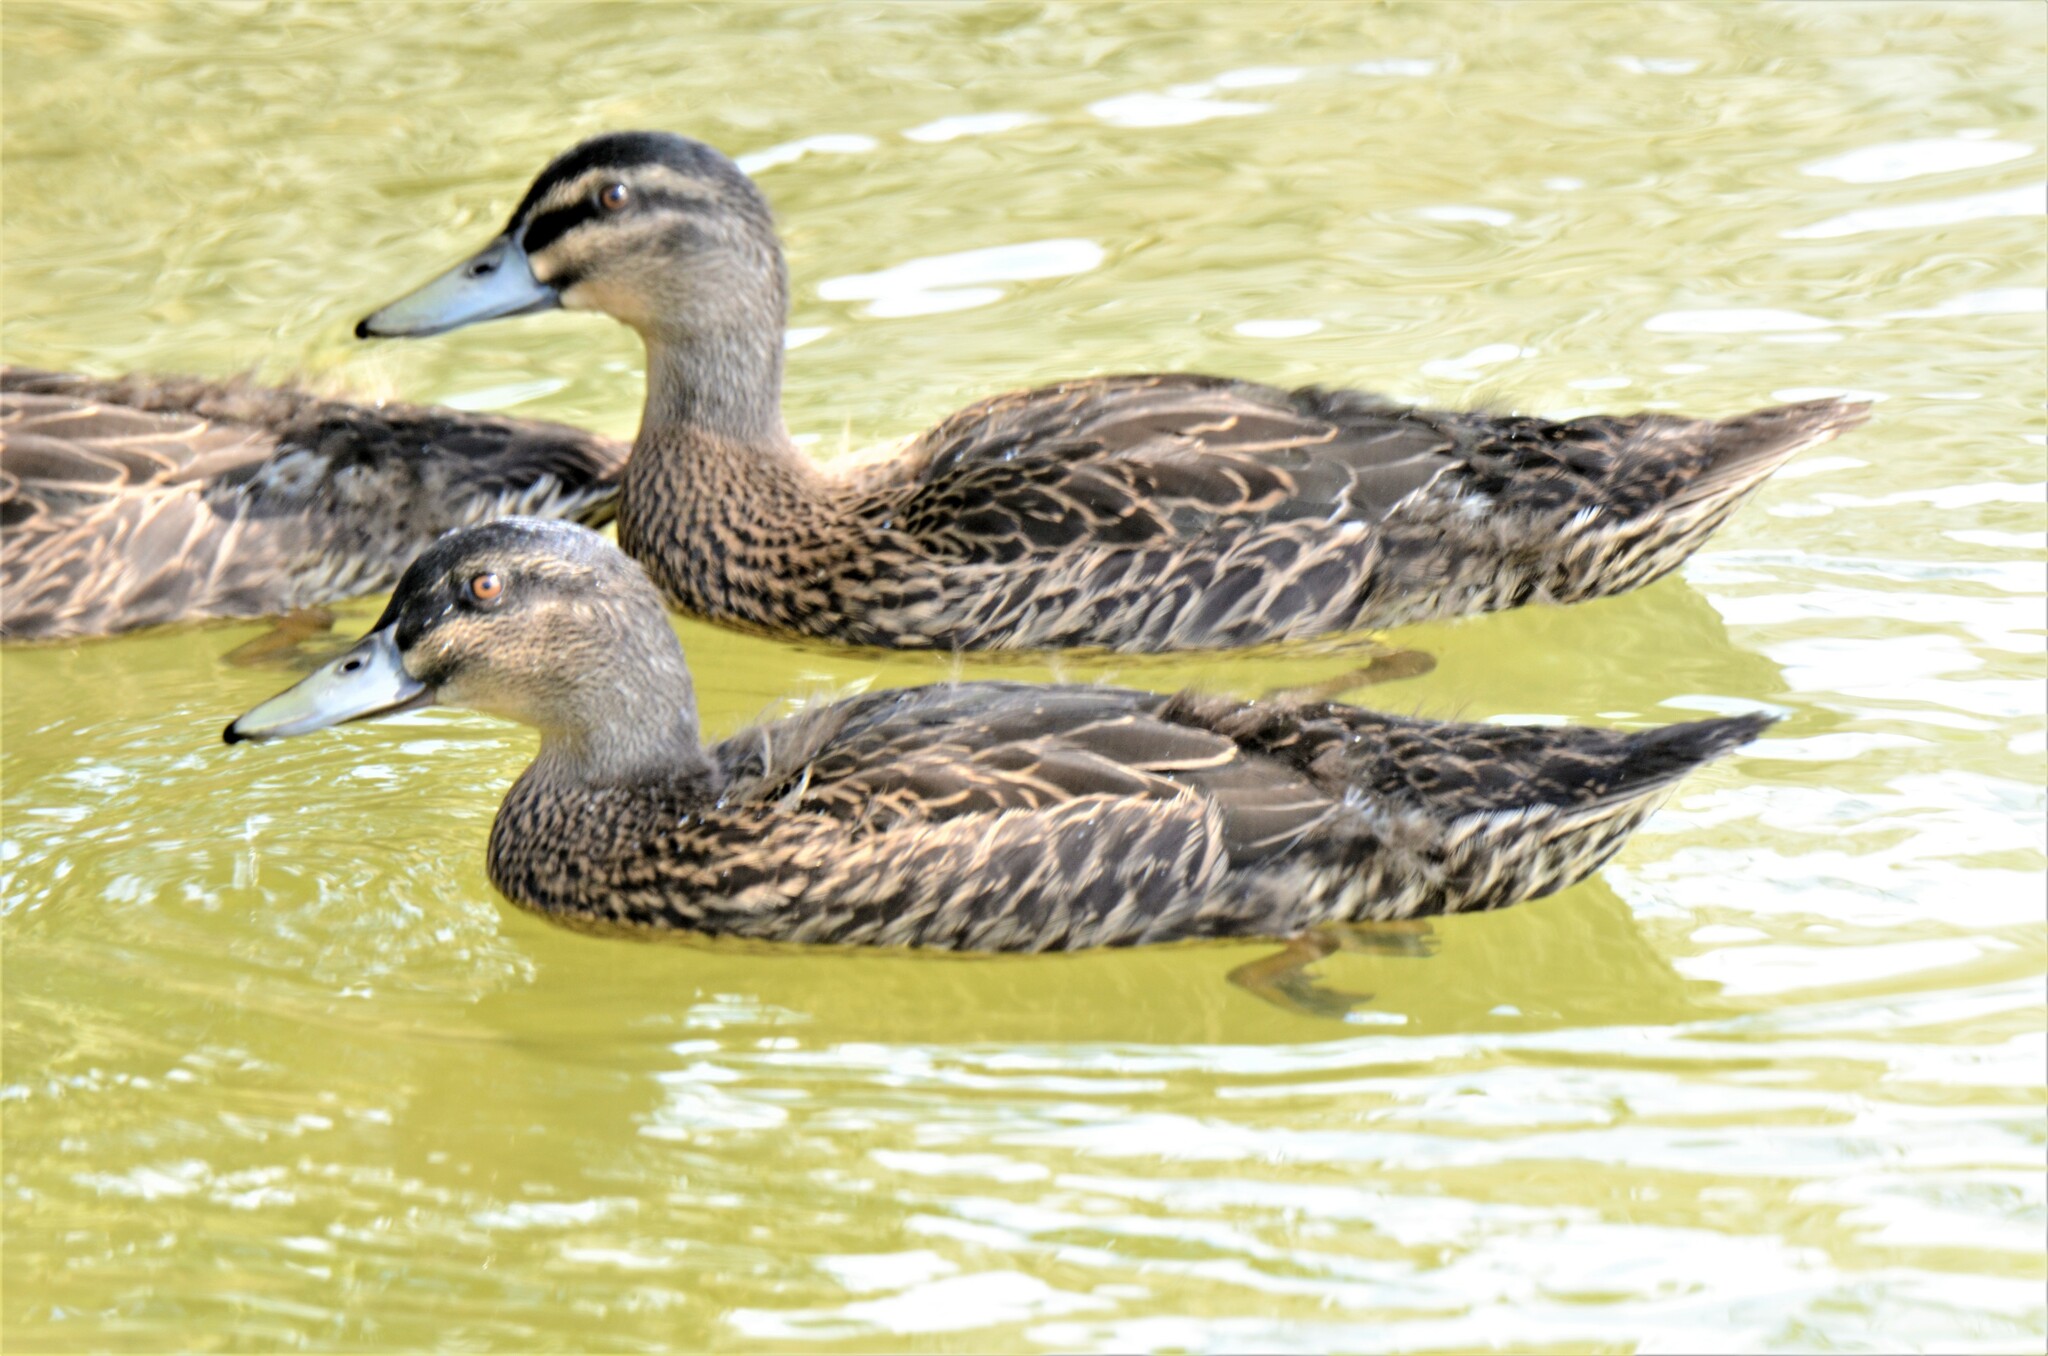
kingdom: Animalia
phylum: Chordata
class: Aves
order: Anseriformes
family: Anatidae
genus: Anas
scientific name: Anas
